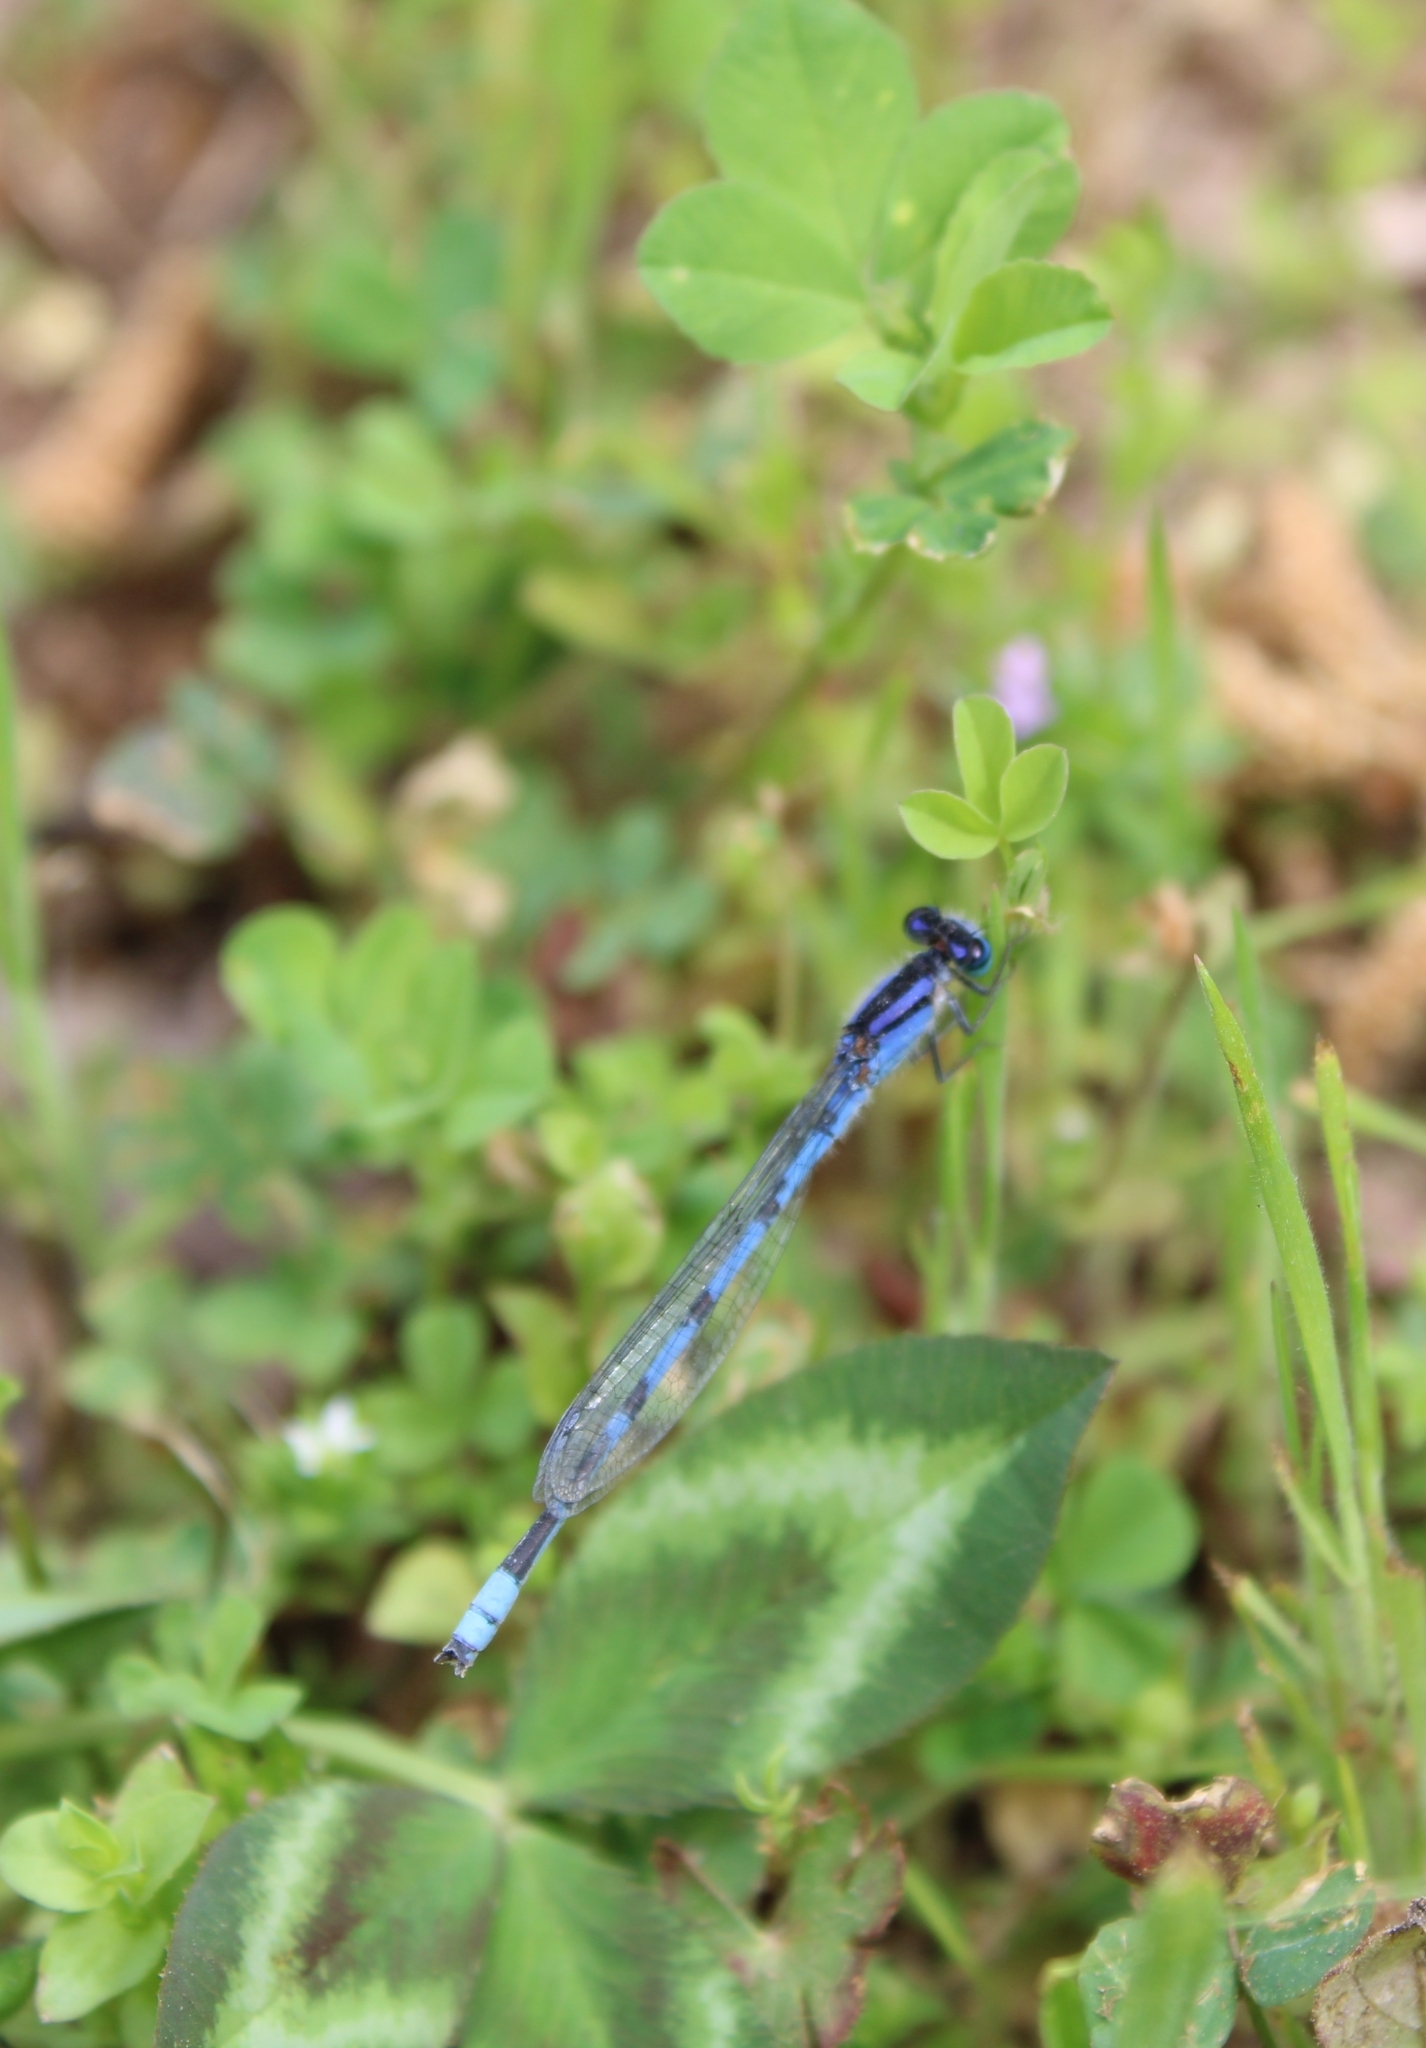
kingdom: Animalia
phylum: Arthropoda
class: Insecta
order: Odonata
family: Coenagrionidae
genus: Enallagma
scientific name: Enallagma civile
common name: Damselfly
